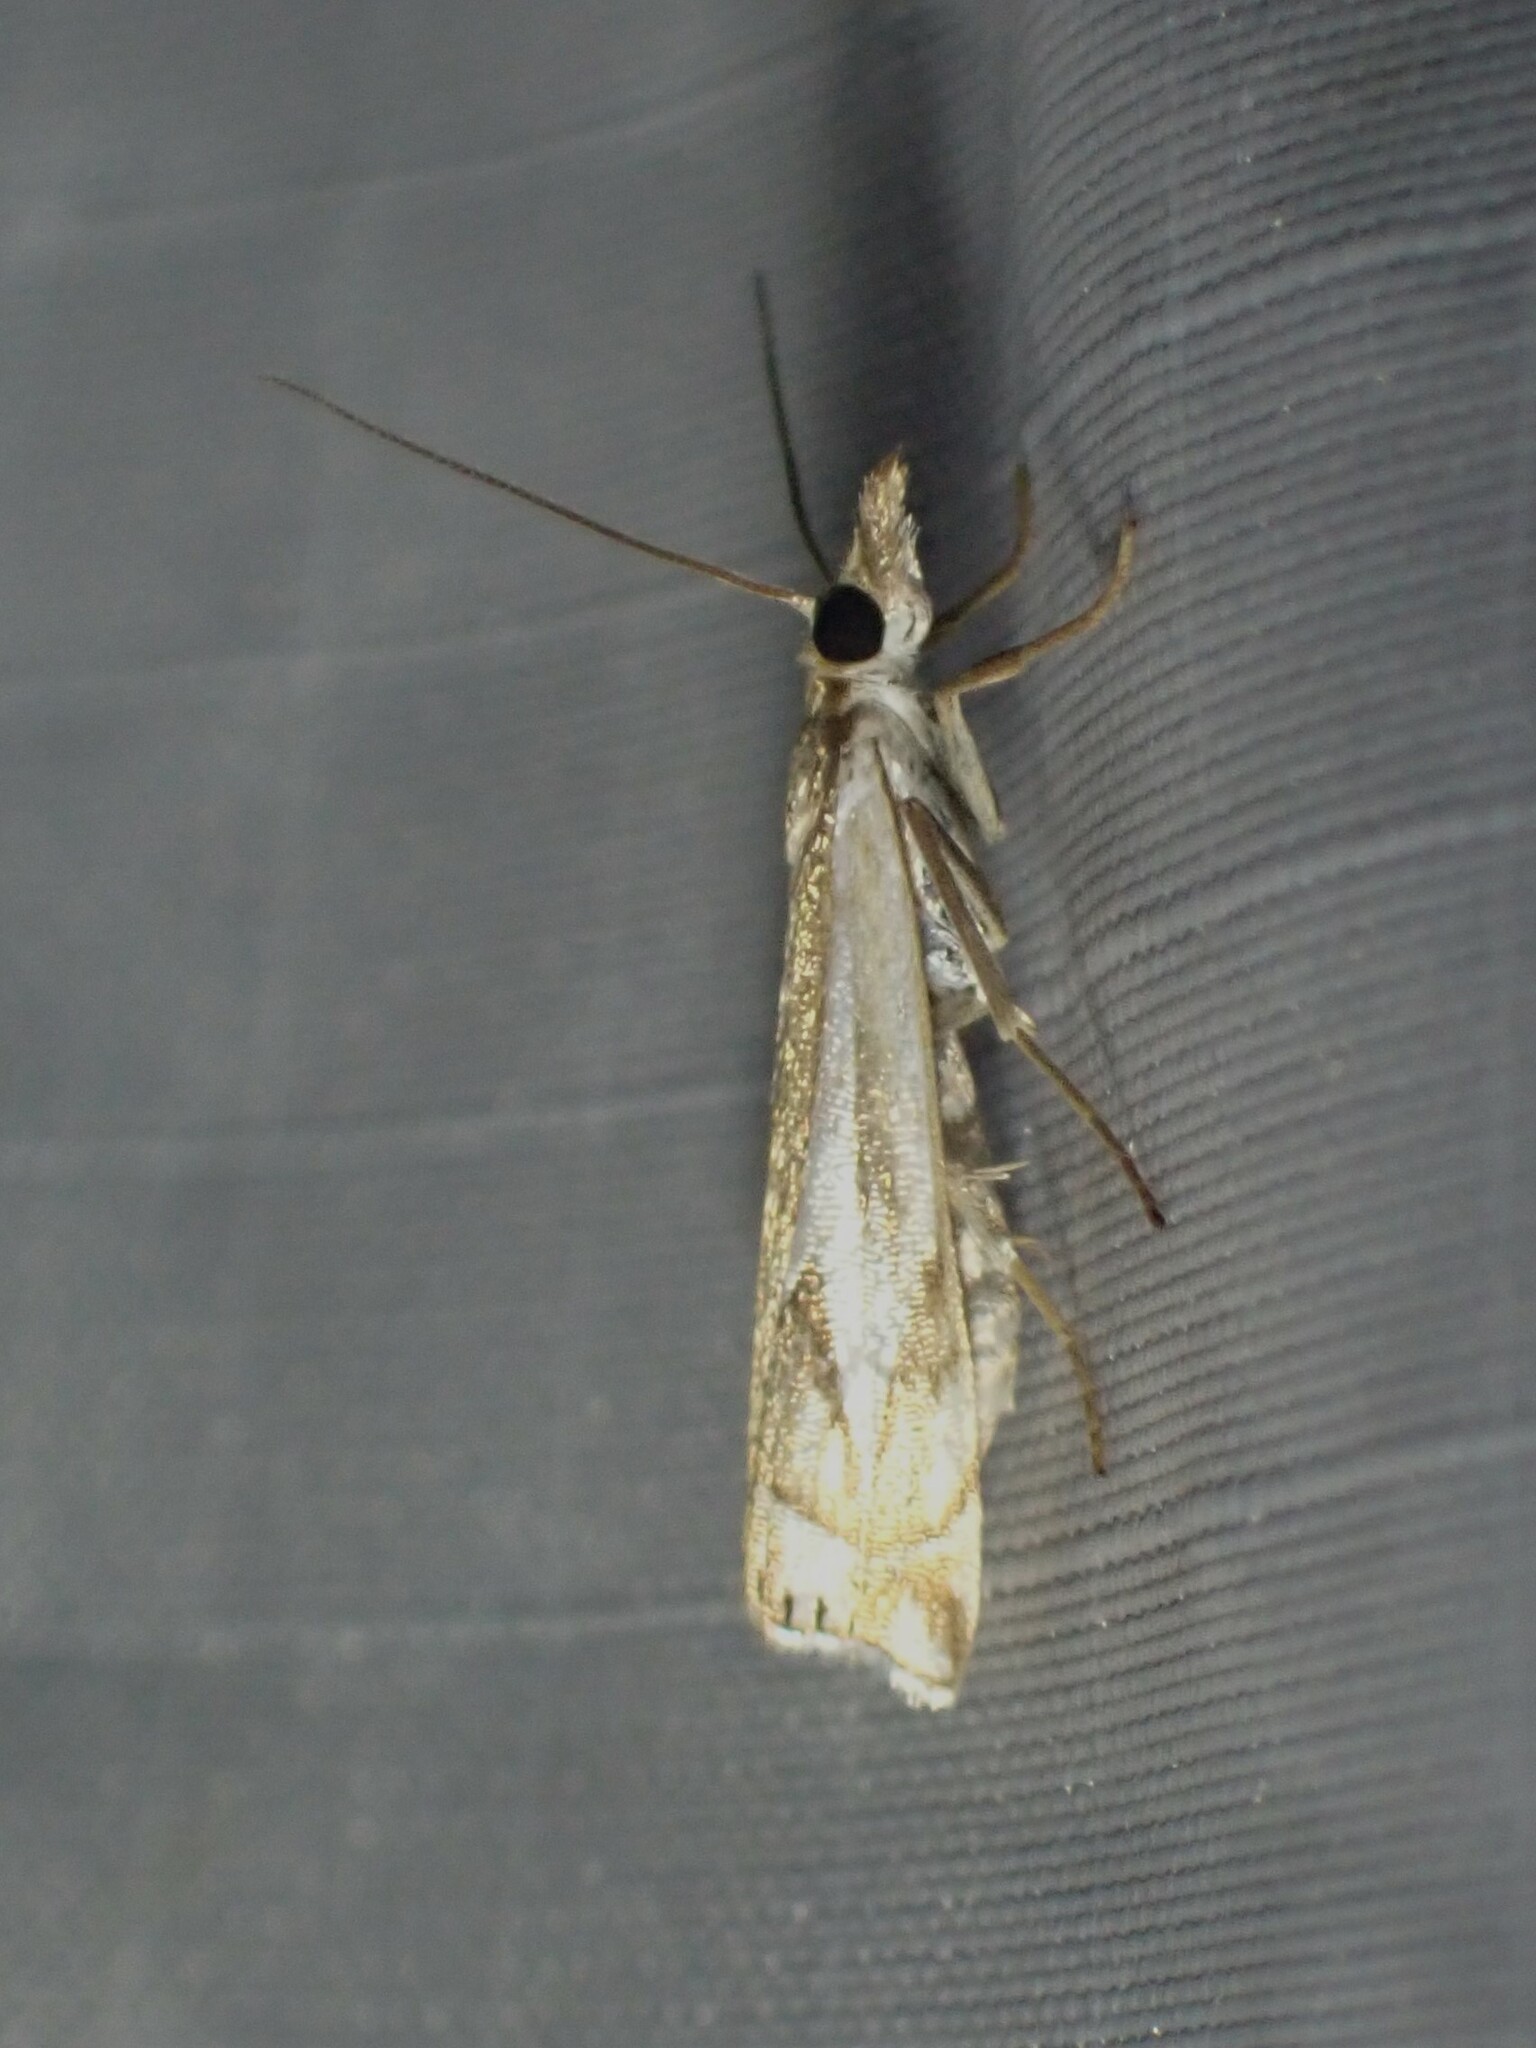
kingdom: Animalia
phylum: Arthropoda
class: Insecta
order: Lepidoptera
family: Crambidae
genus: Crambus
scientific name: Crambus bidens
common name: Forked grass-veneer
